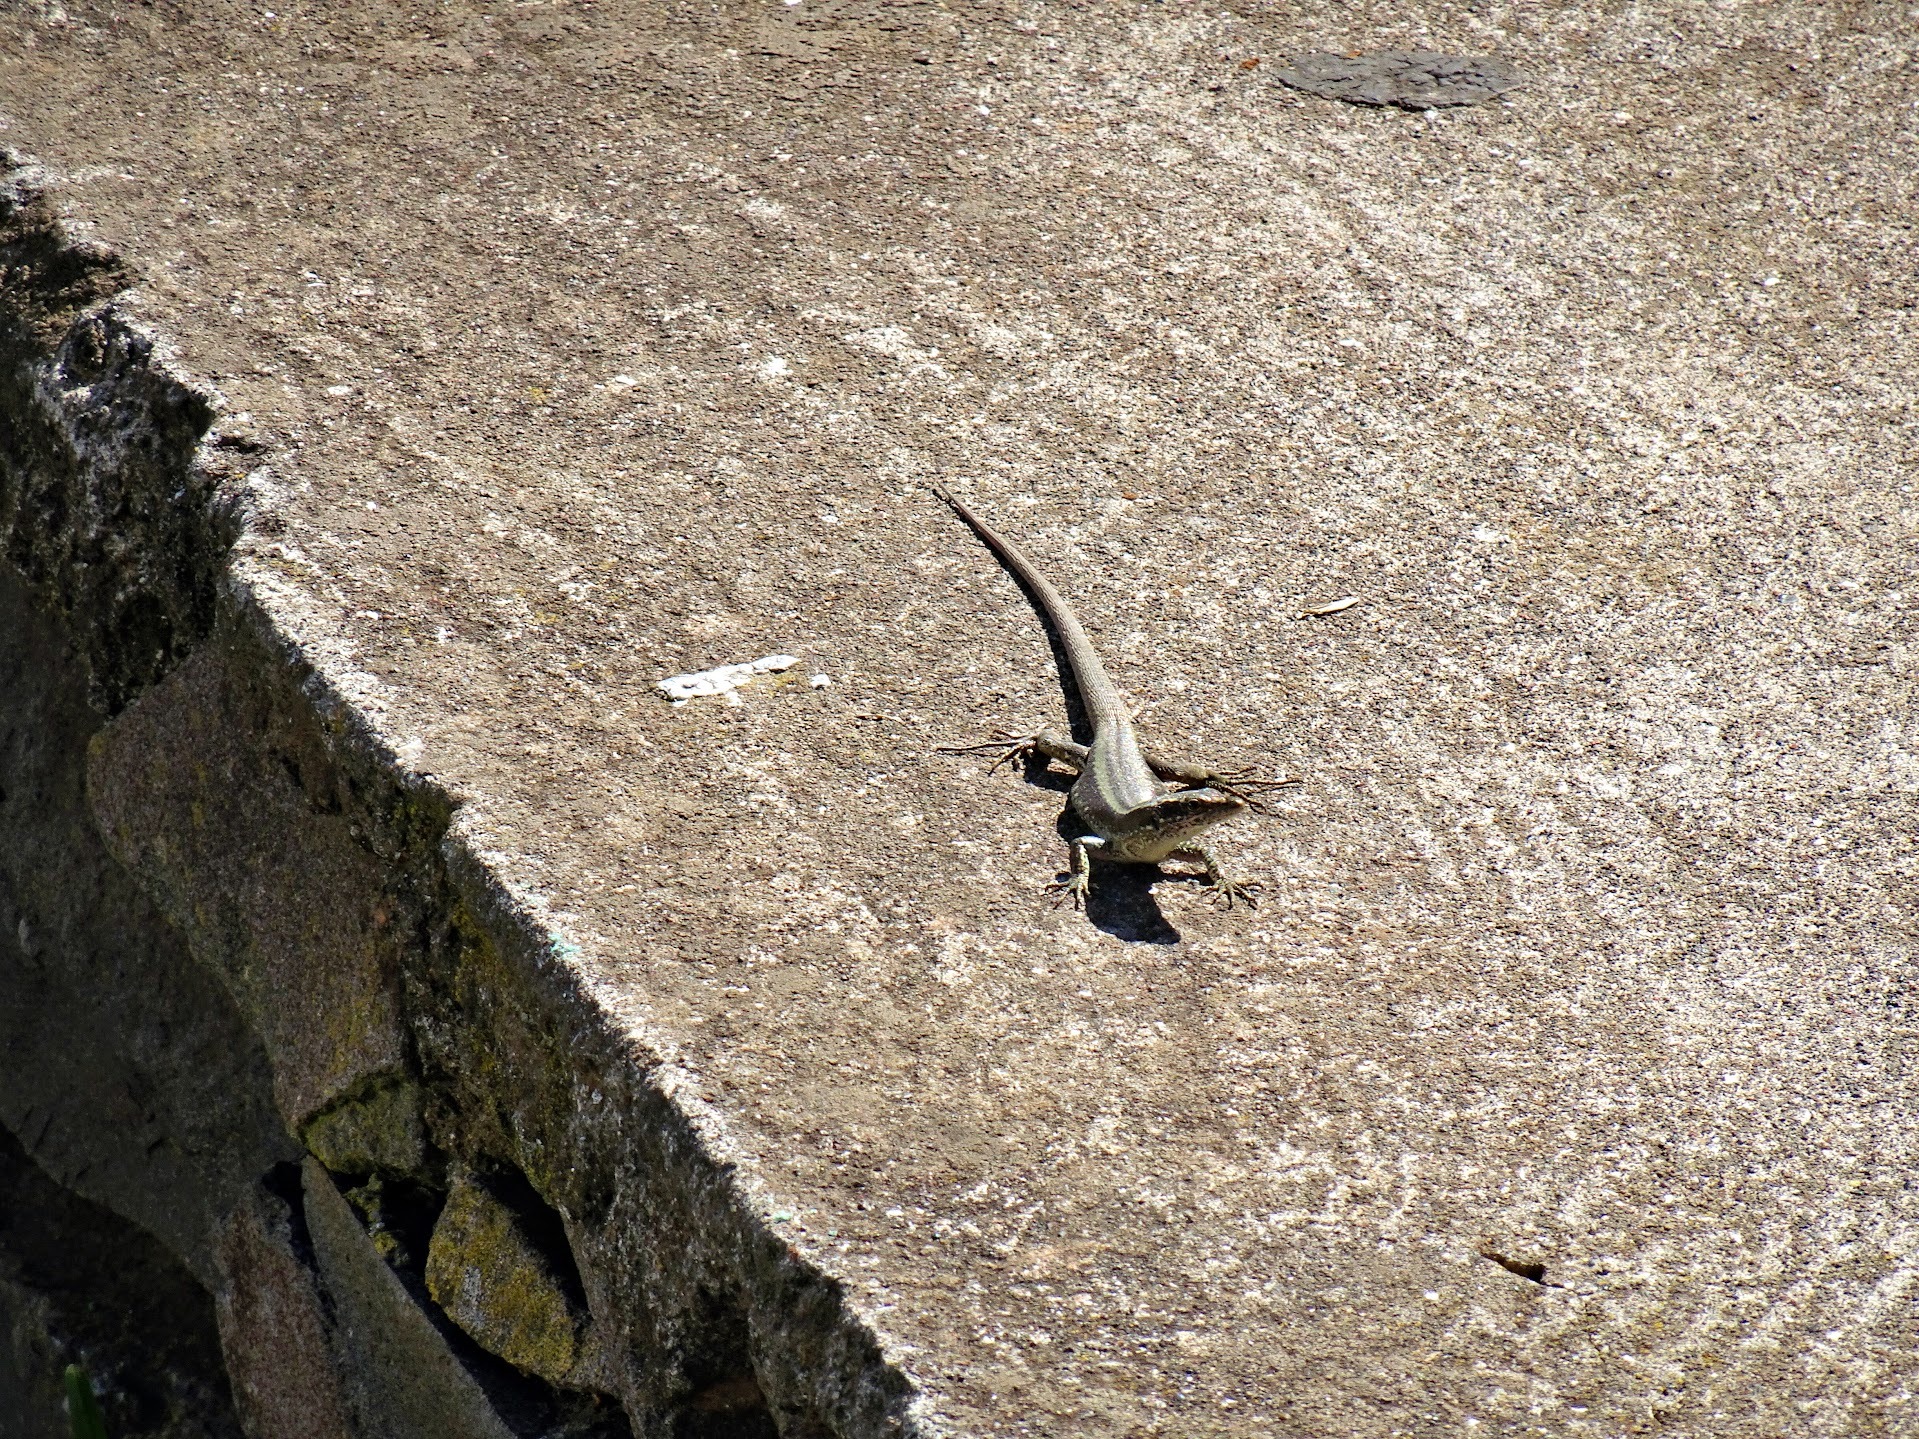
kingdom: Animalia
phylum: Chordata
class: Squamata
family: Lacertidae
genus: Teira
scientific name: Teira dugesii
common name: Madeira lizard
